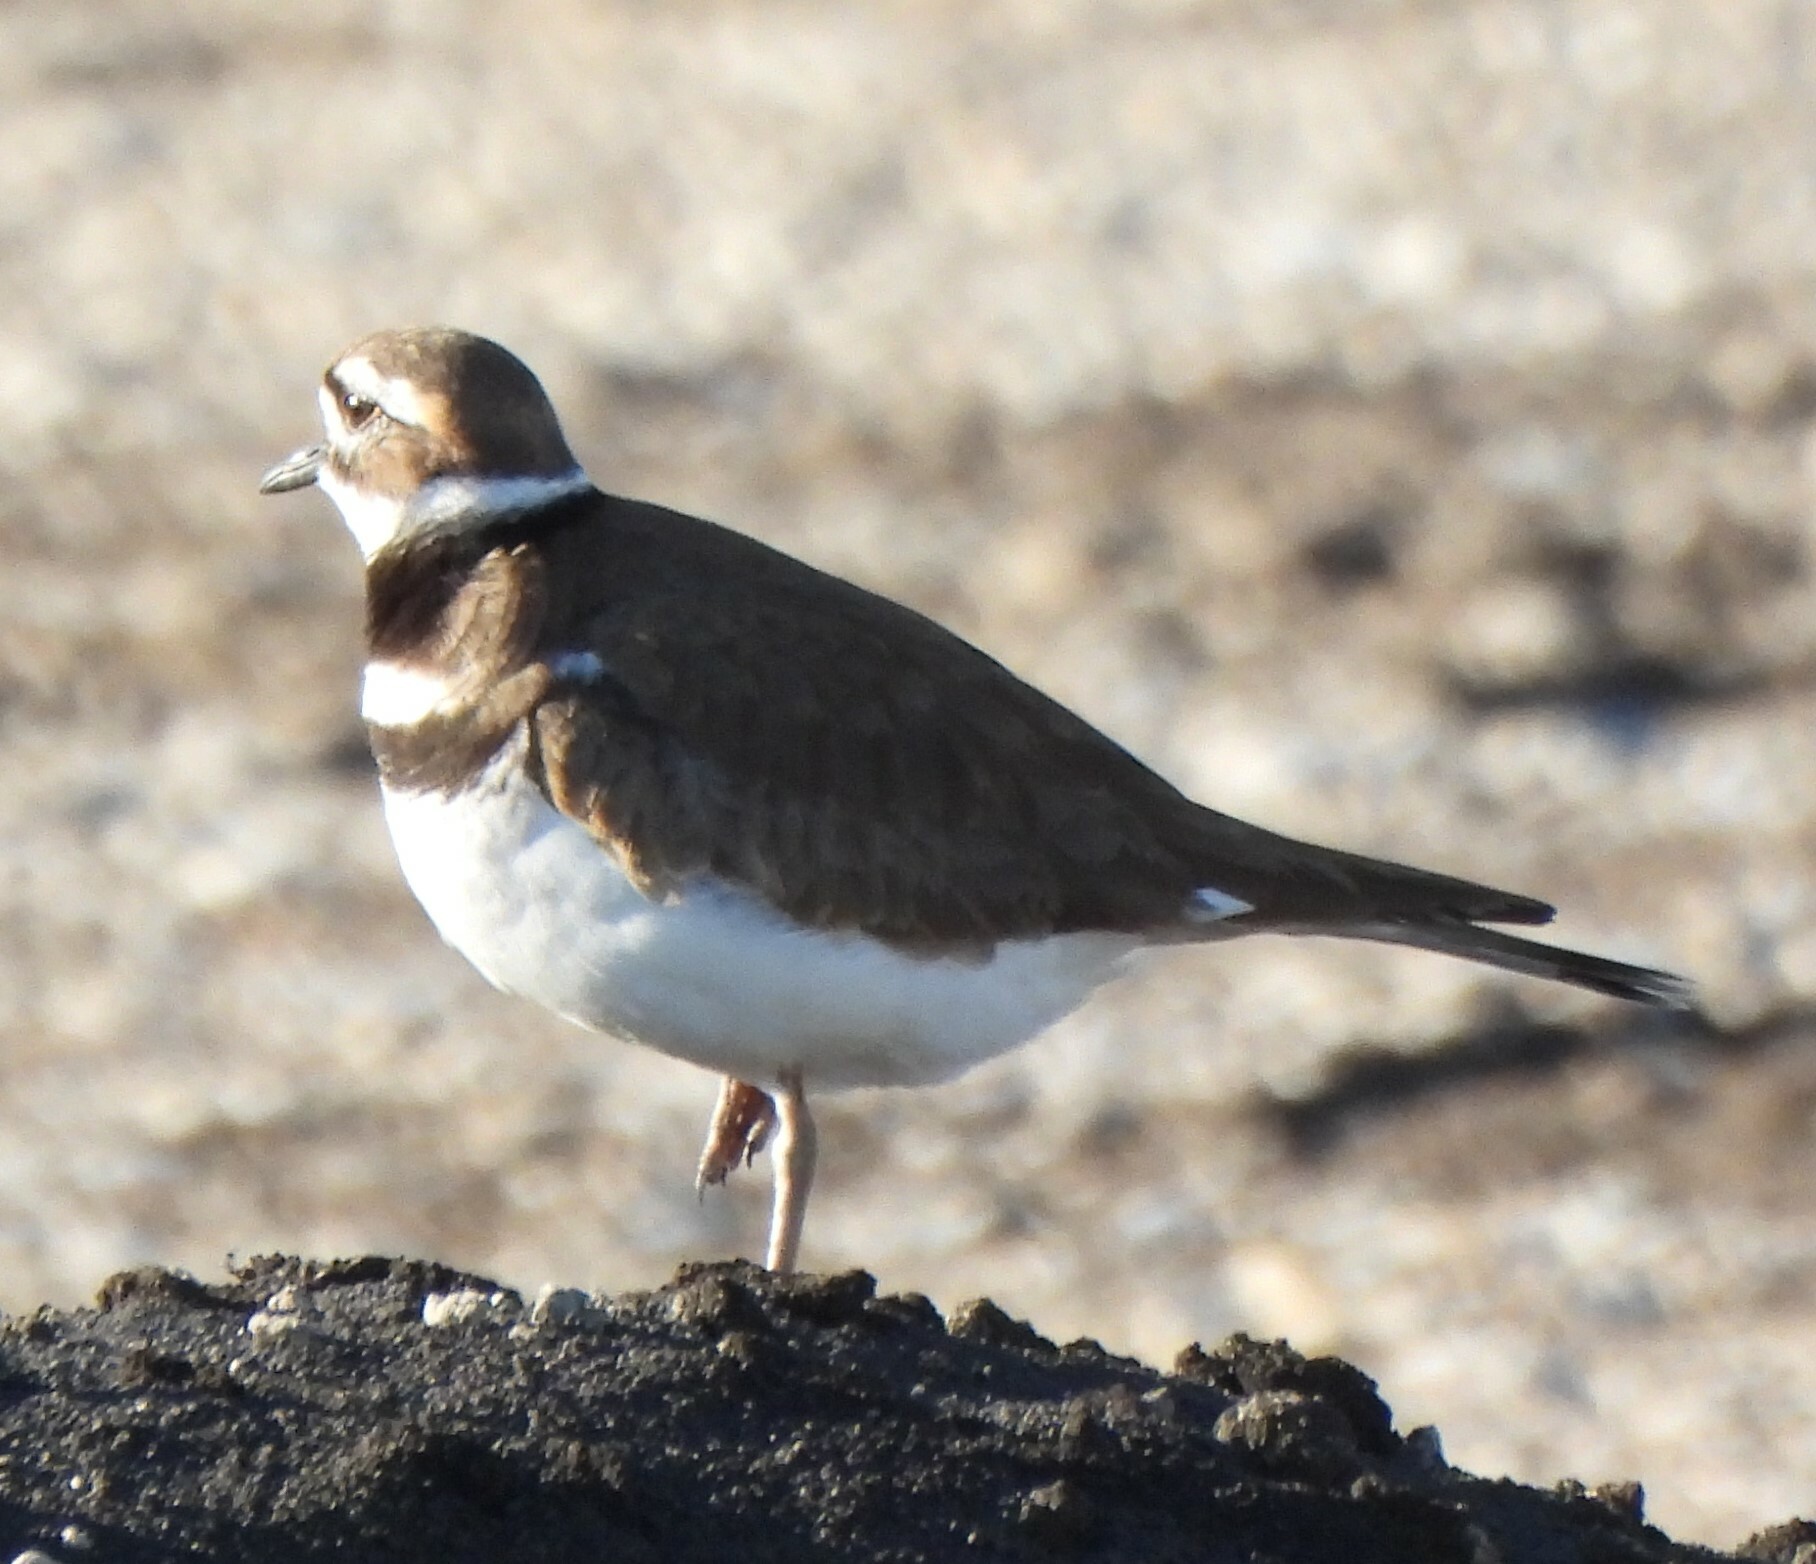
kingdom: Animalia
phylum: Chordata
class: Aves
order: Charadriiformes
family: Charadriidae
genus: Charadrius
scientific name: Charadrius vociferus
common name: Killdeer
